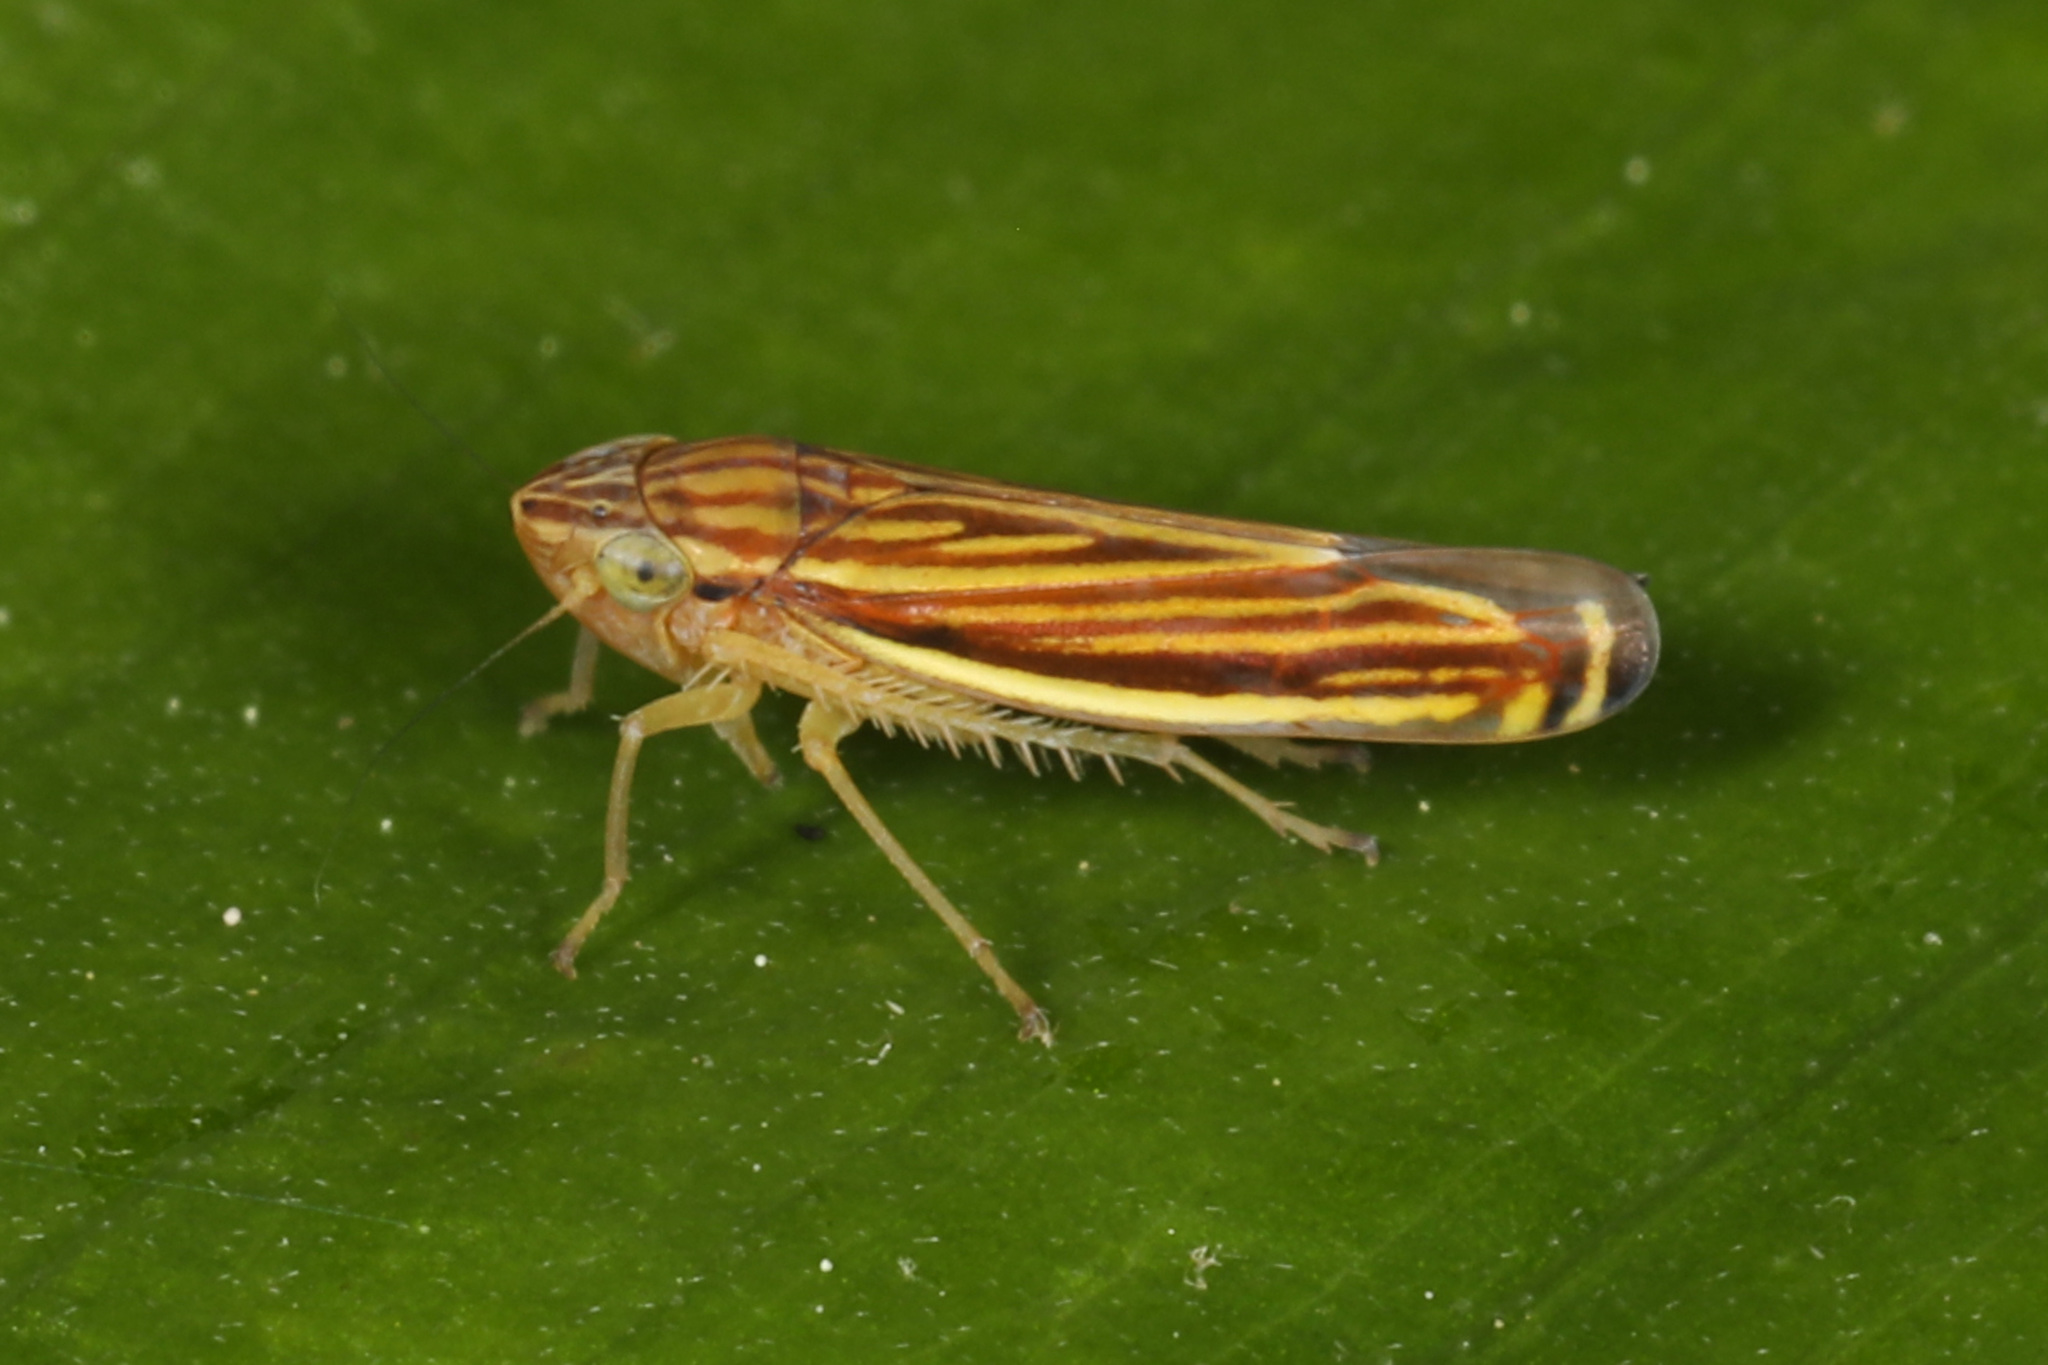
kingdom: Animalia
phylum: Arthropoda
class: Insecta
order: Hemiptera
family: Cicadellidae
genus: Sibovia
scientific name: Sibovia occatoria
